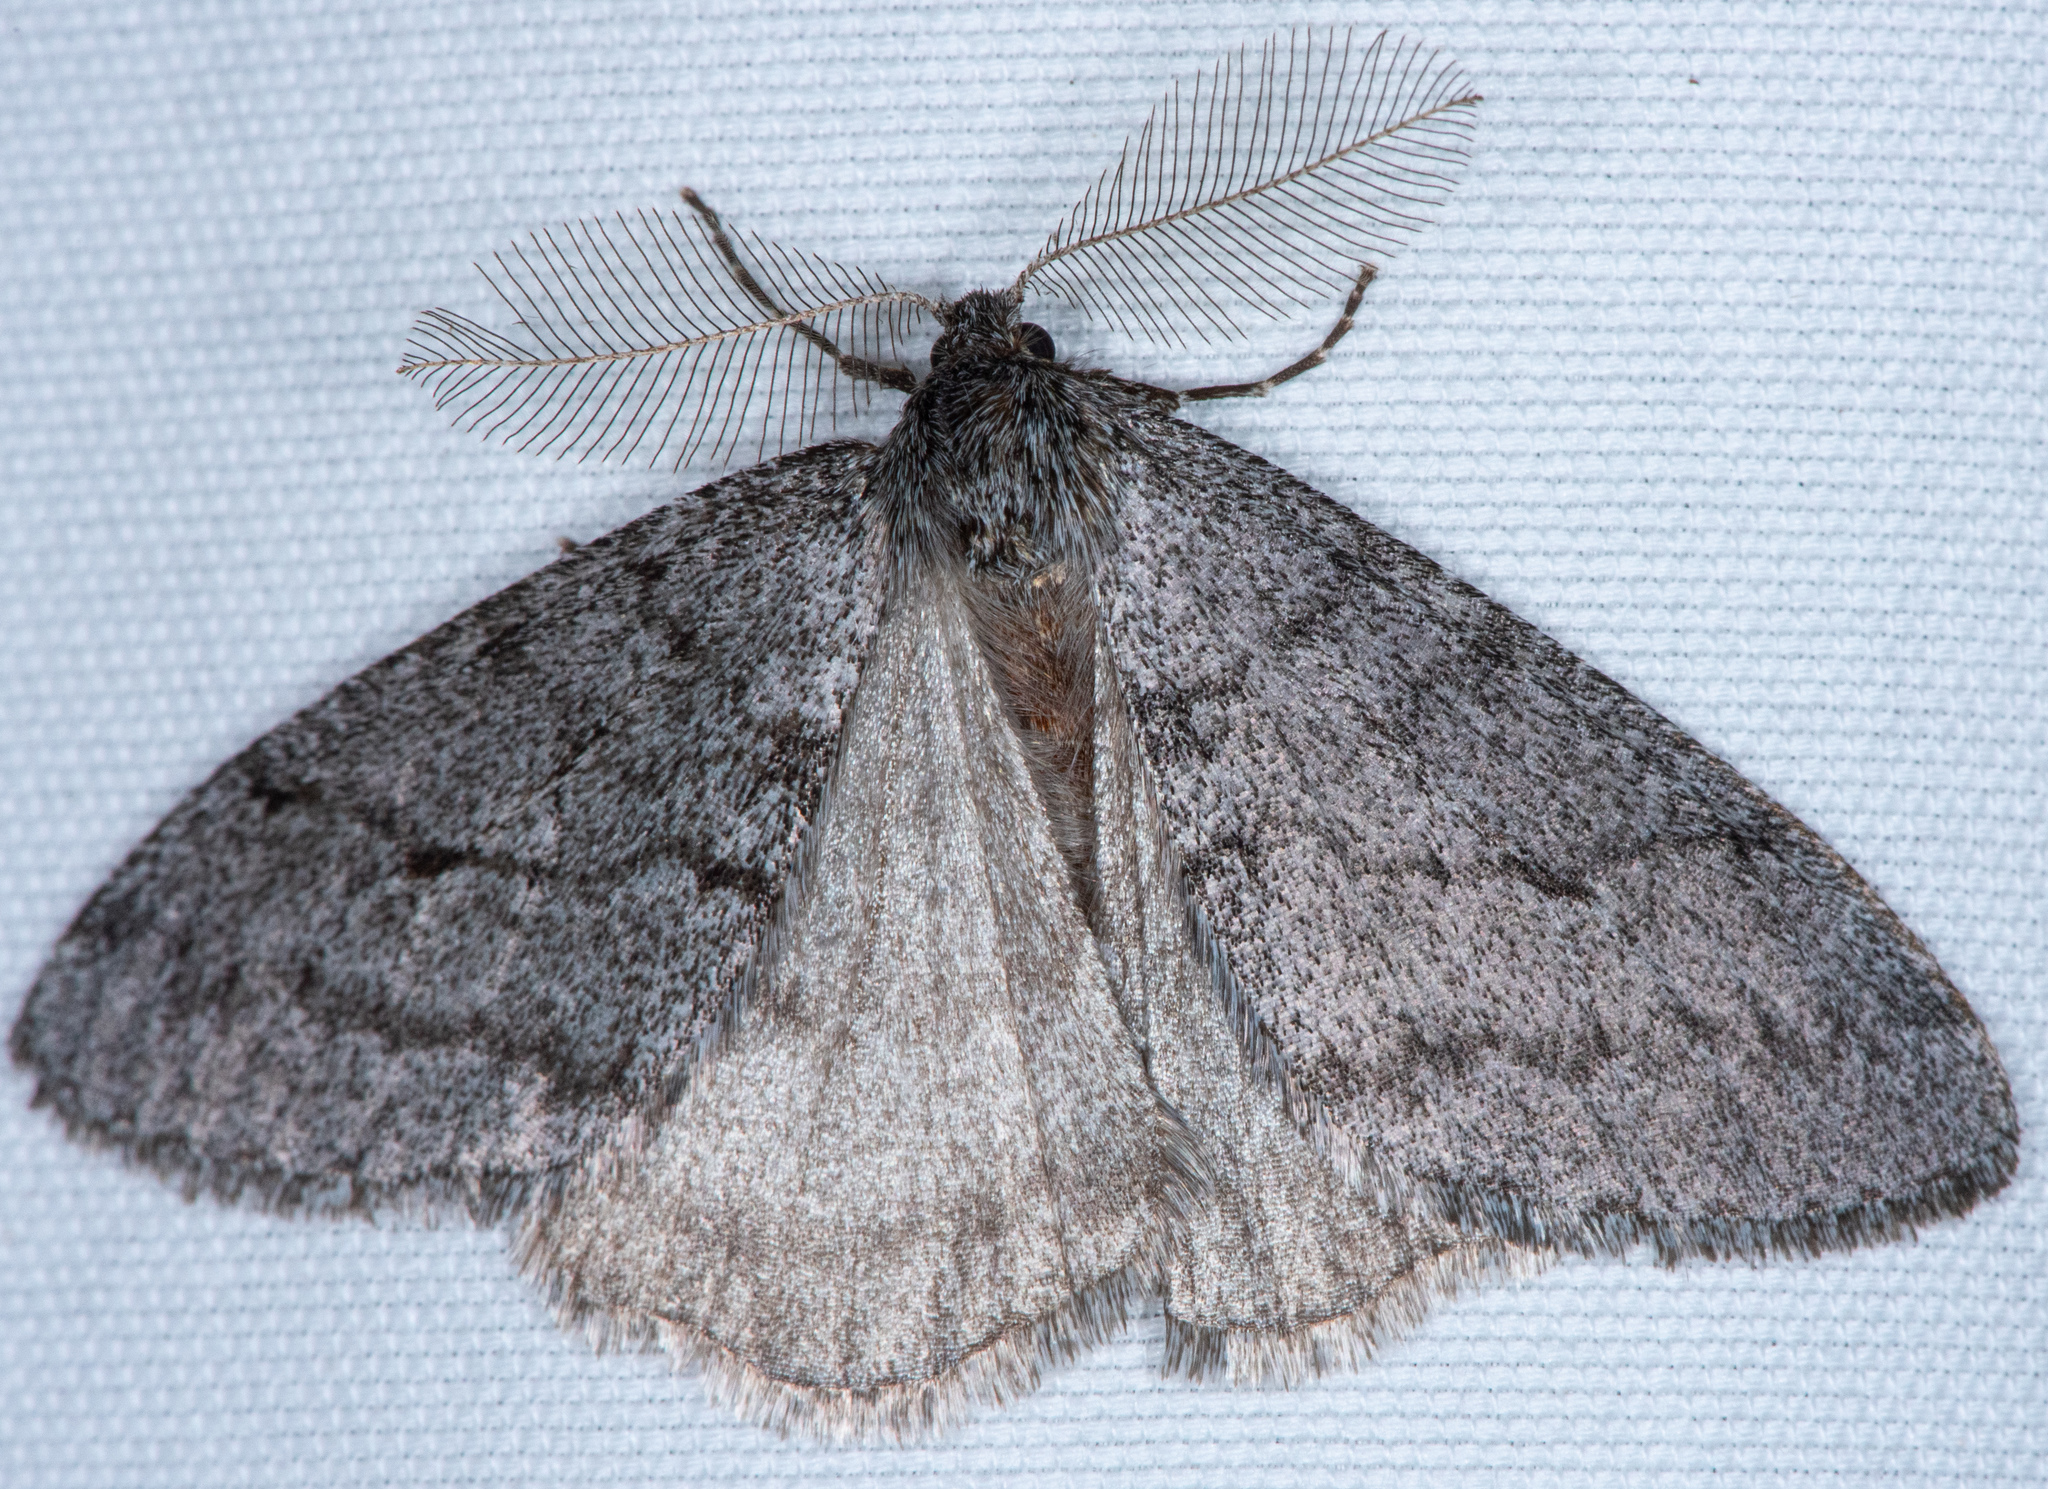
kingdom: Animalia
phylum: Arthropoda
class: Insecta
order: Lepidoptera
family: Geometridae
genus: Phigalia
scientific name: Phigalia plumogeraria
